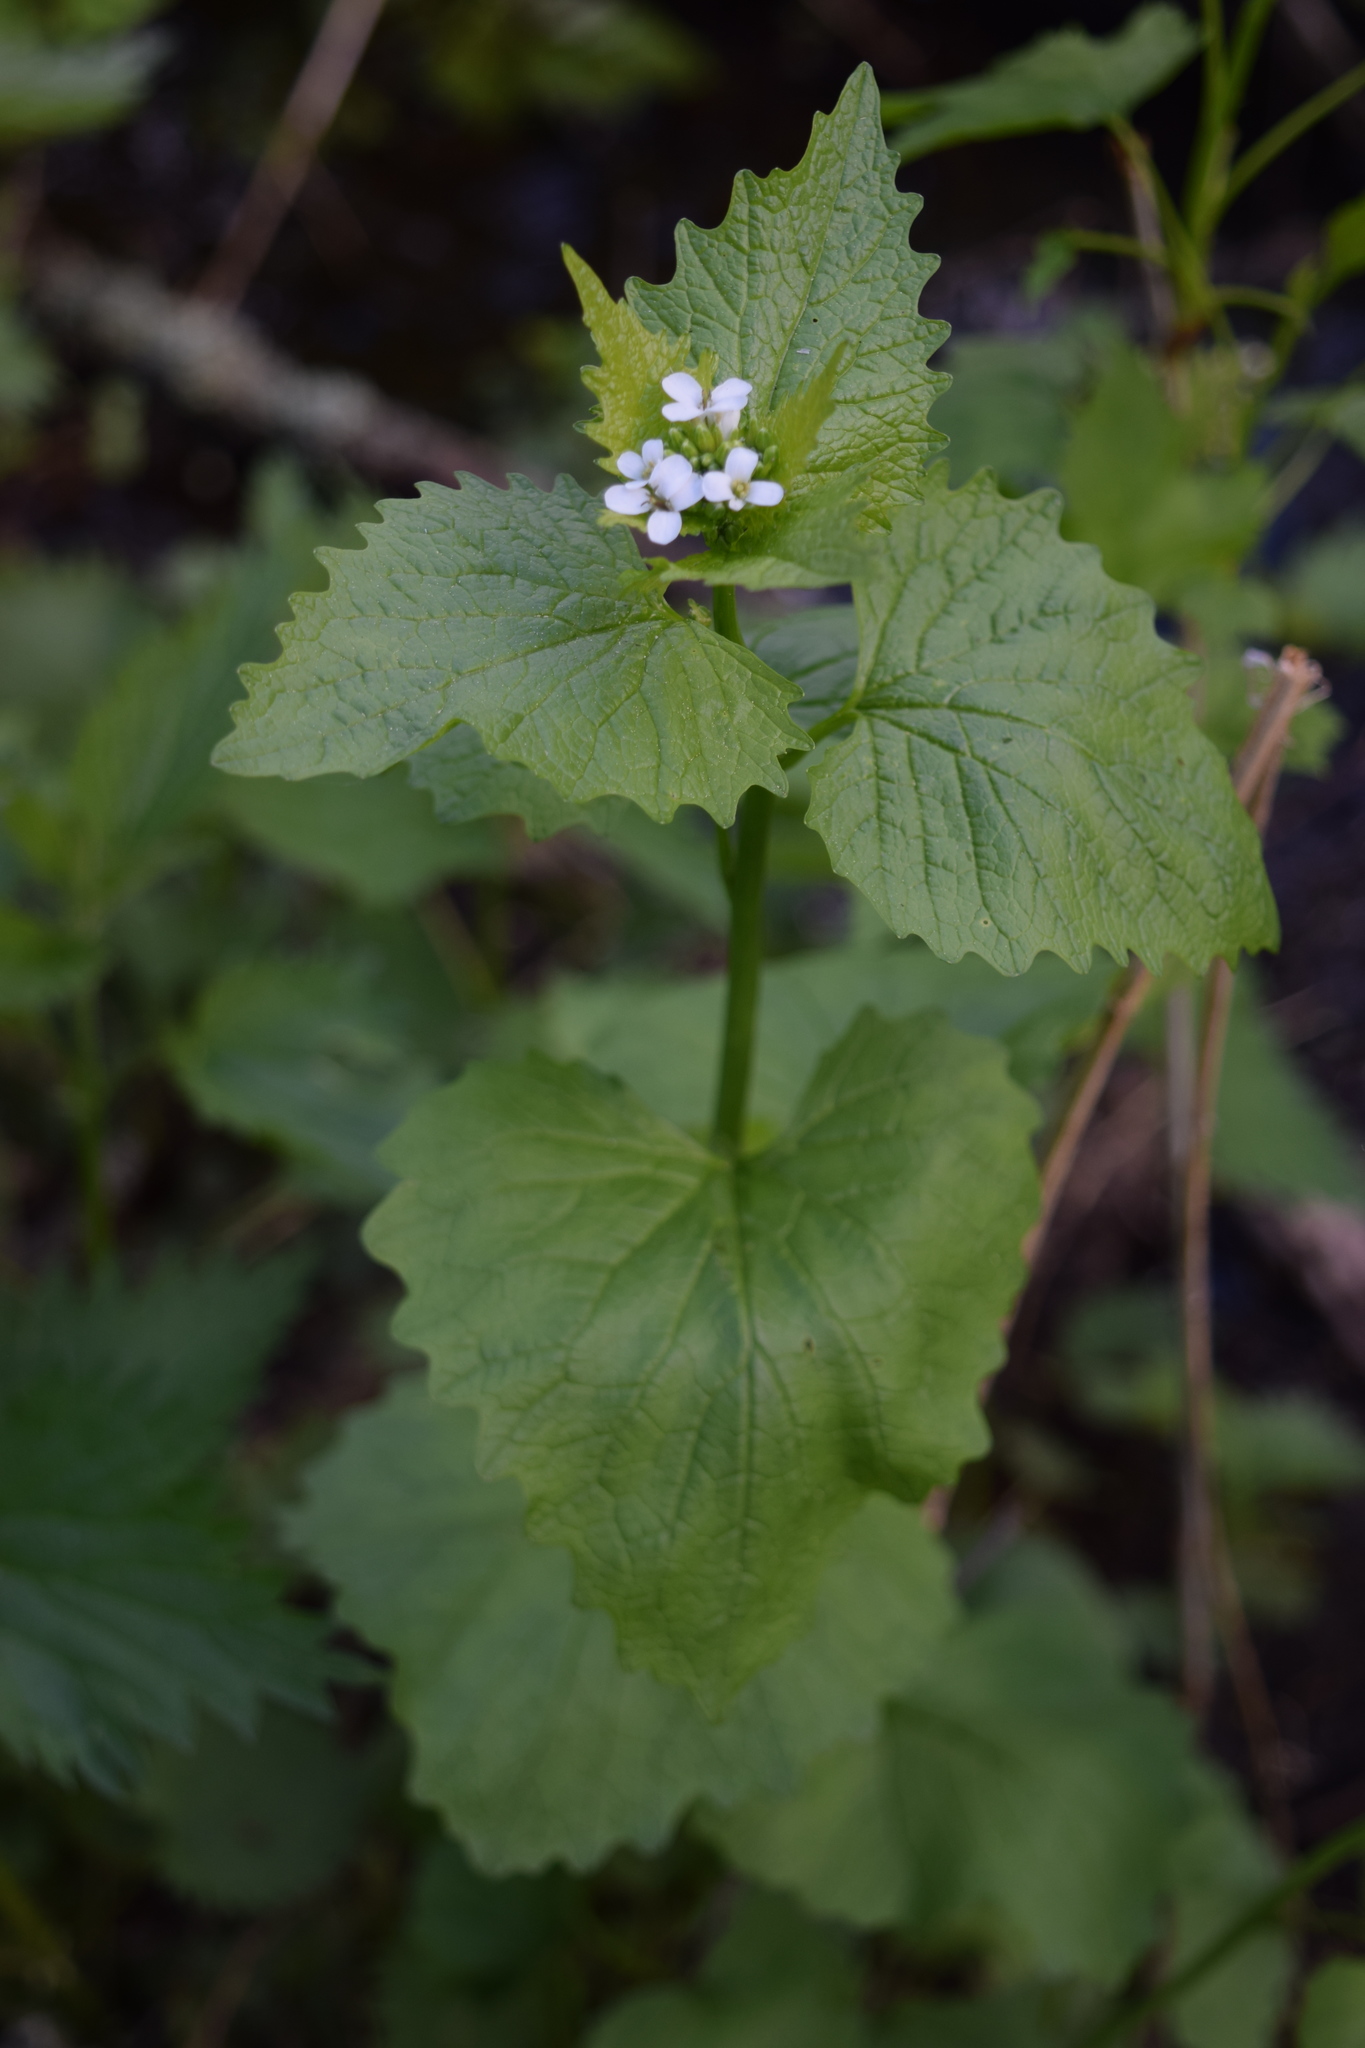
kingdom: Plantae
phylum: Tracheophyta
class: Magnoliopsida
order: Brassicales
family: Brassicaceae
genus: Alliaria
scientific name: Alliaria petiolata
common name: Garlic mustard
